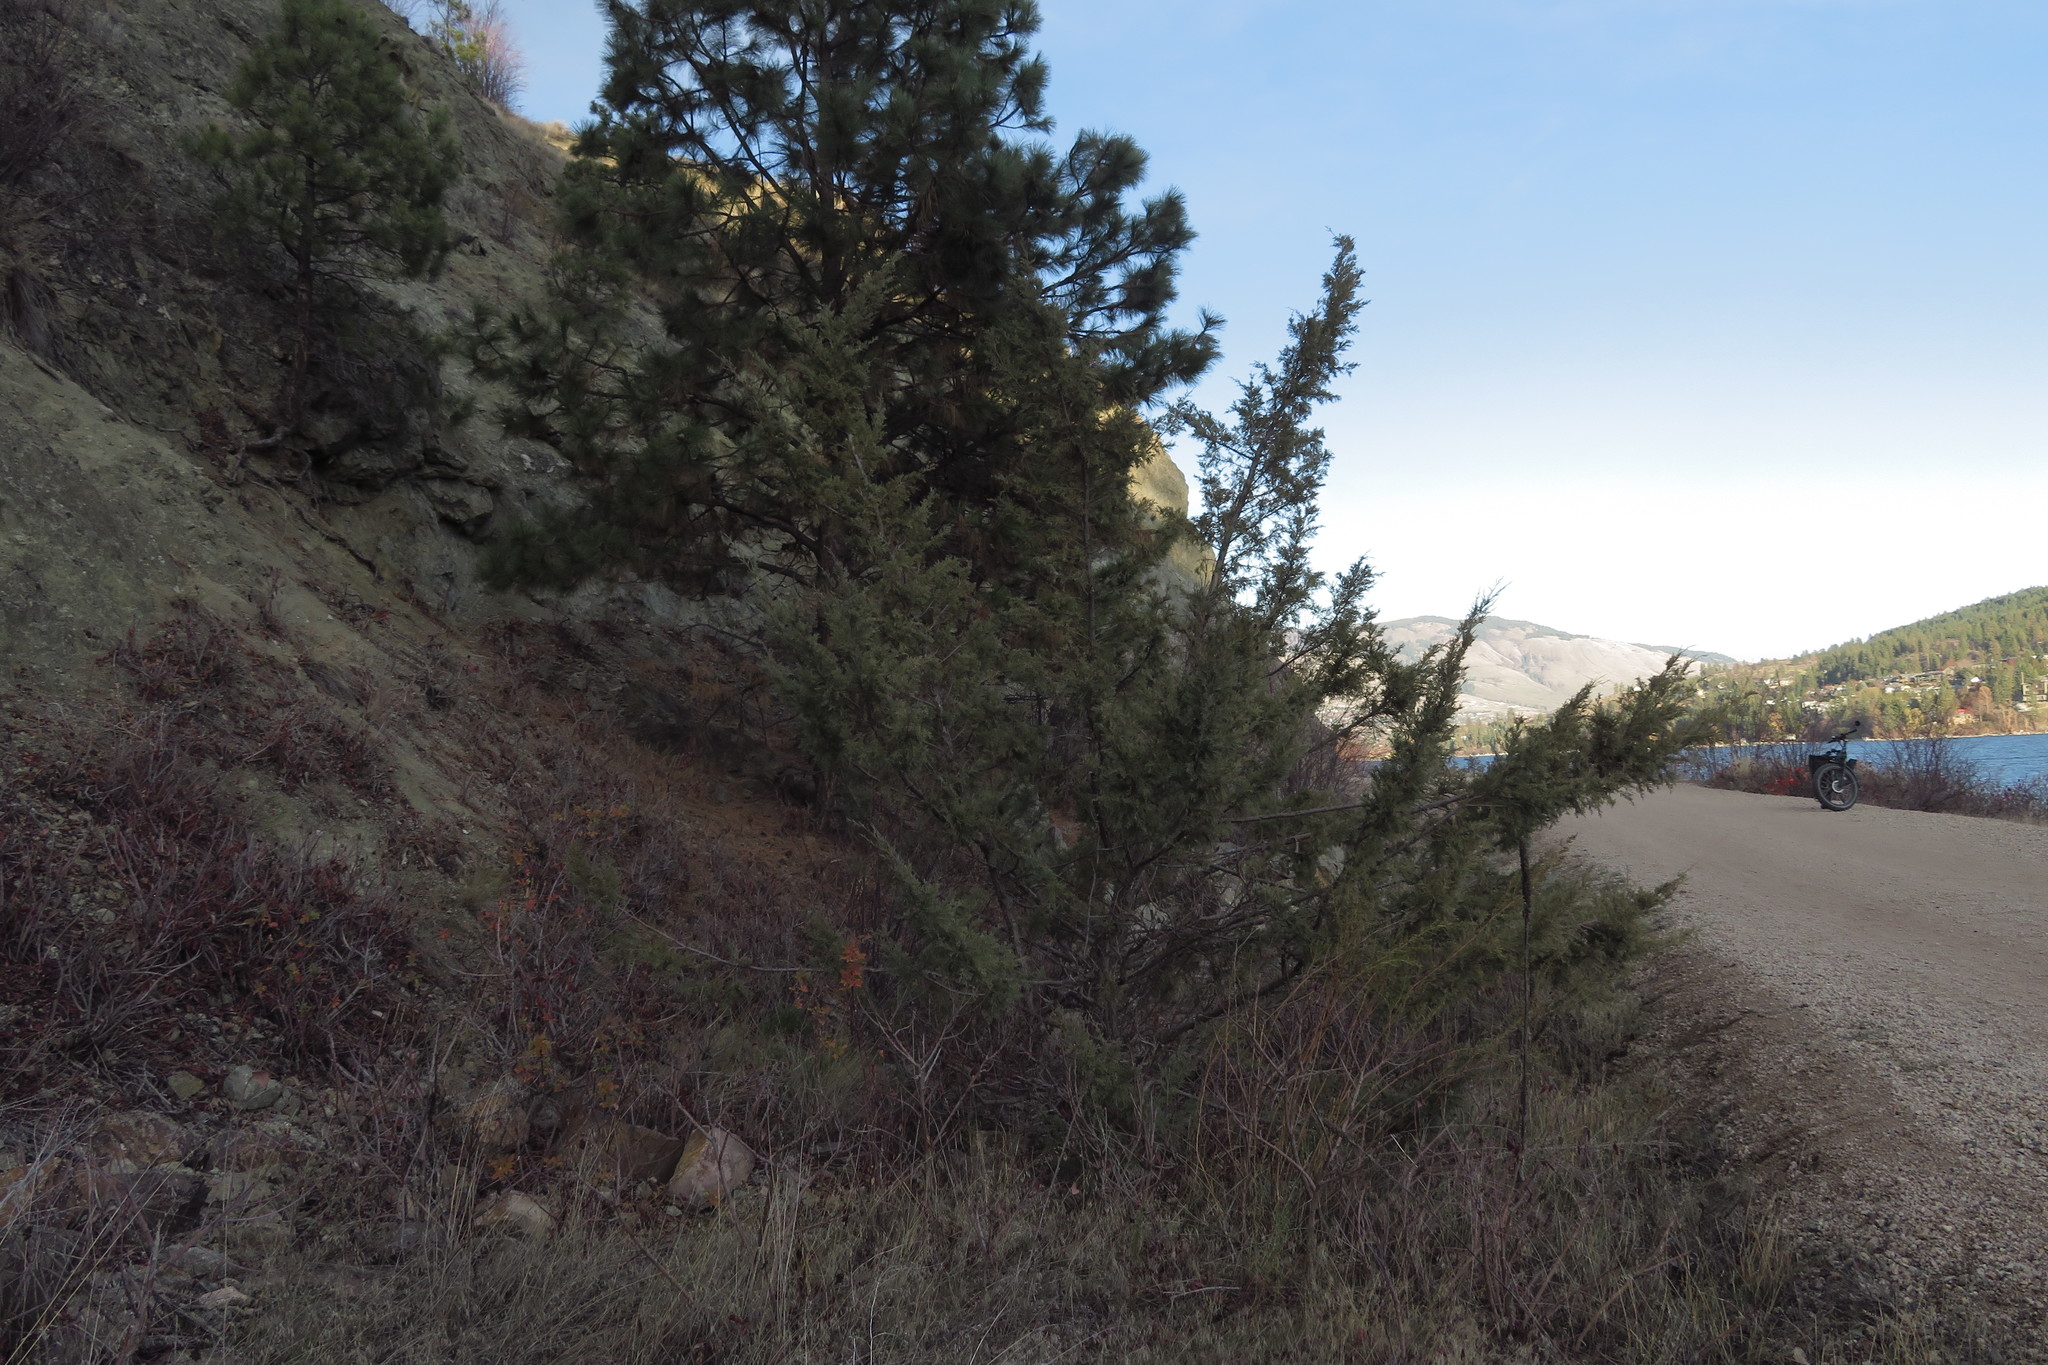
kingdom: Plantae
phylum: Tracheophyta
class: Pinopsida
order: Pinales
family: Cupressaceae
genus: Juniperus
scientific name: Juniperus scopulorum
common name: Rocky mountain juniper
